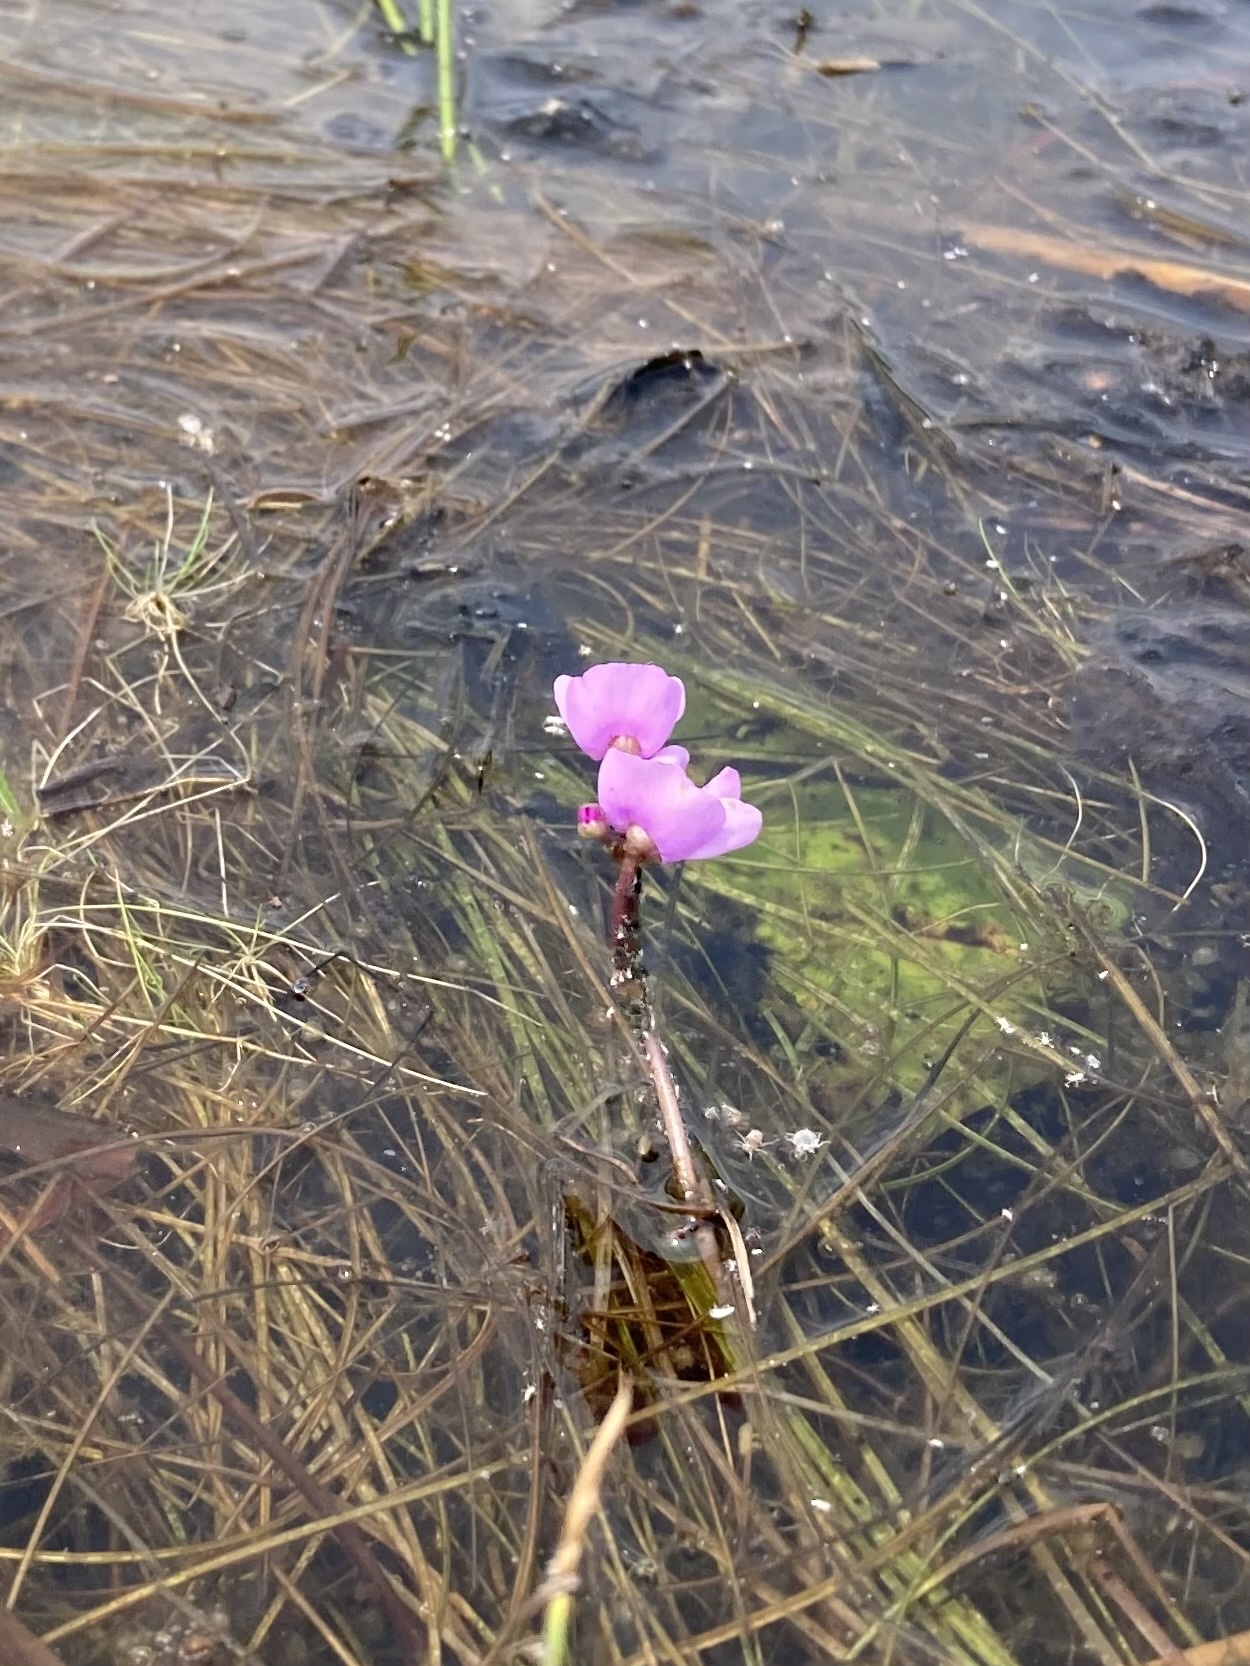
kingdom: Plantae
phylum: Tracheophyta
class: Magnoliopsida
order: Lamiales
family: Lentibulariaceae
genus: Utricularia
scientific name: Utricularia purpurea
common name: Eastern purple bladderwort
